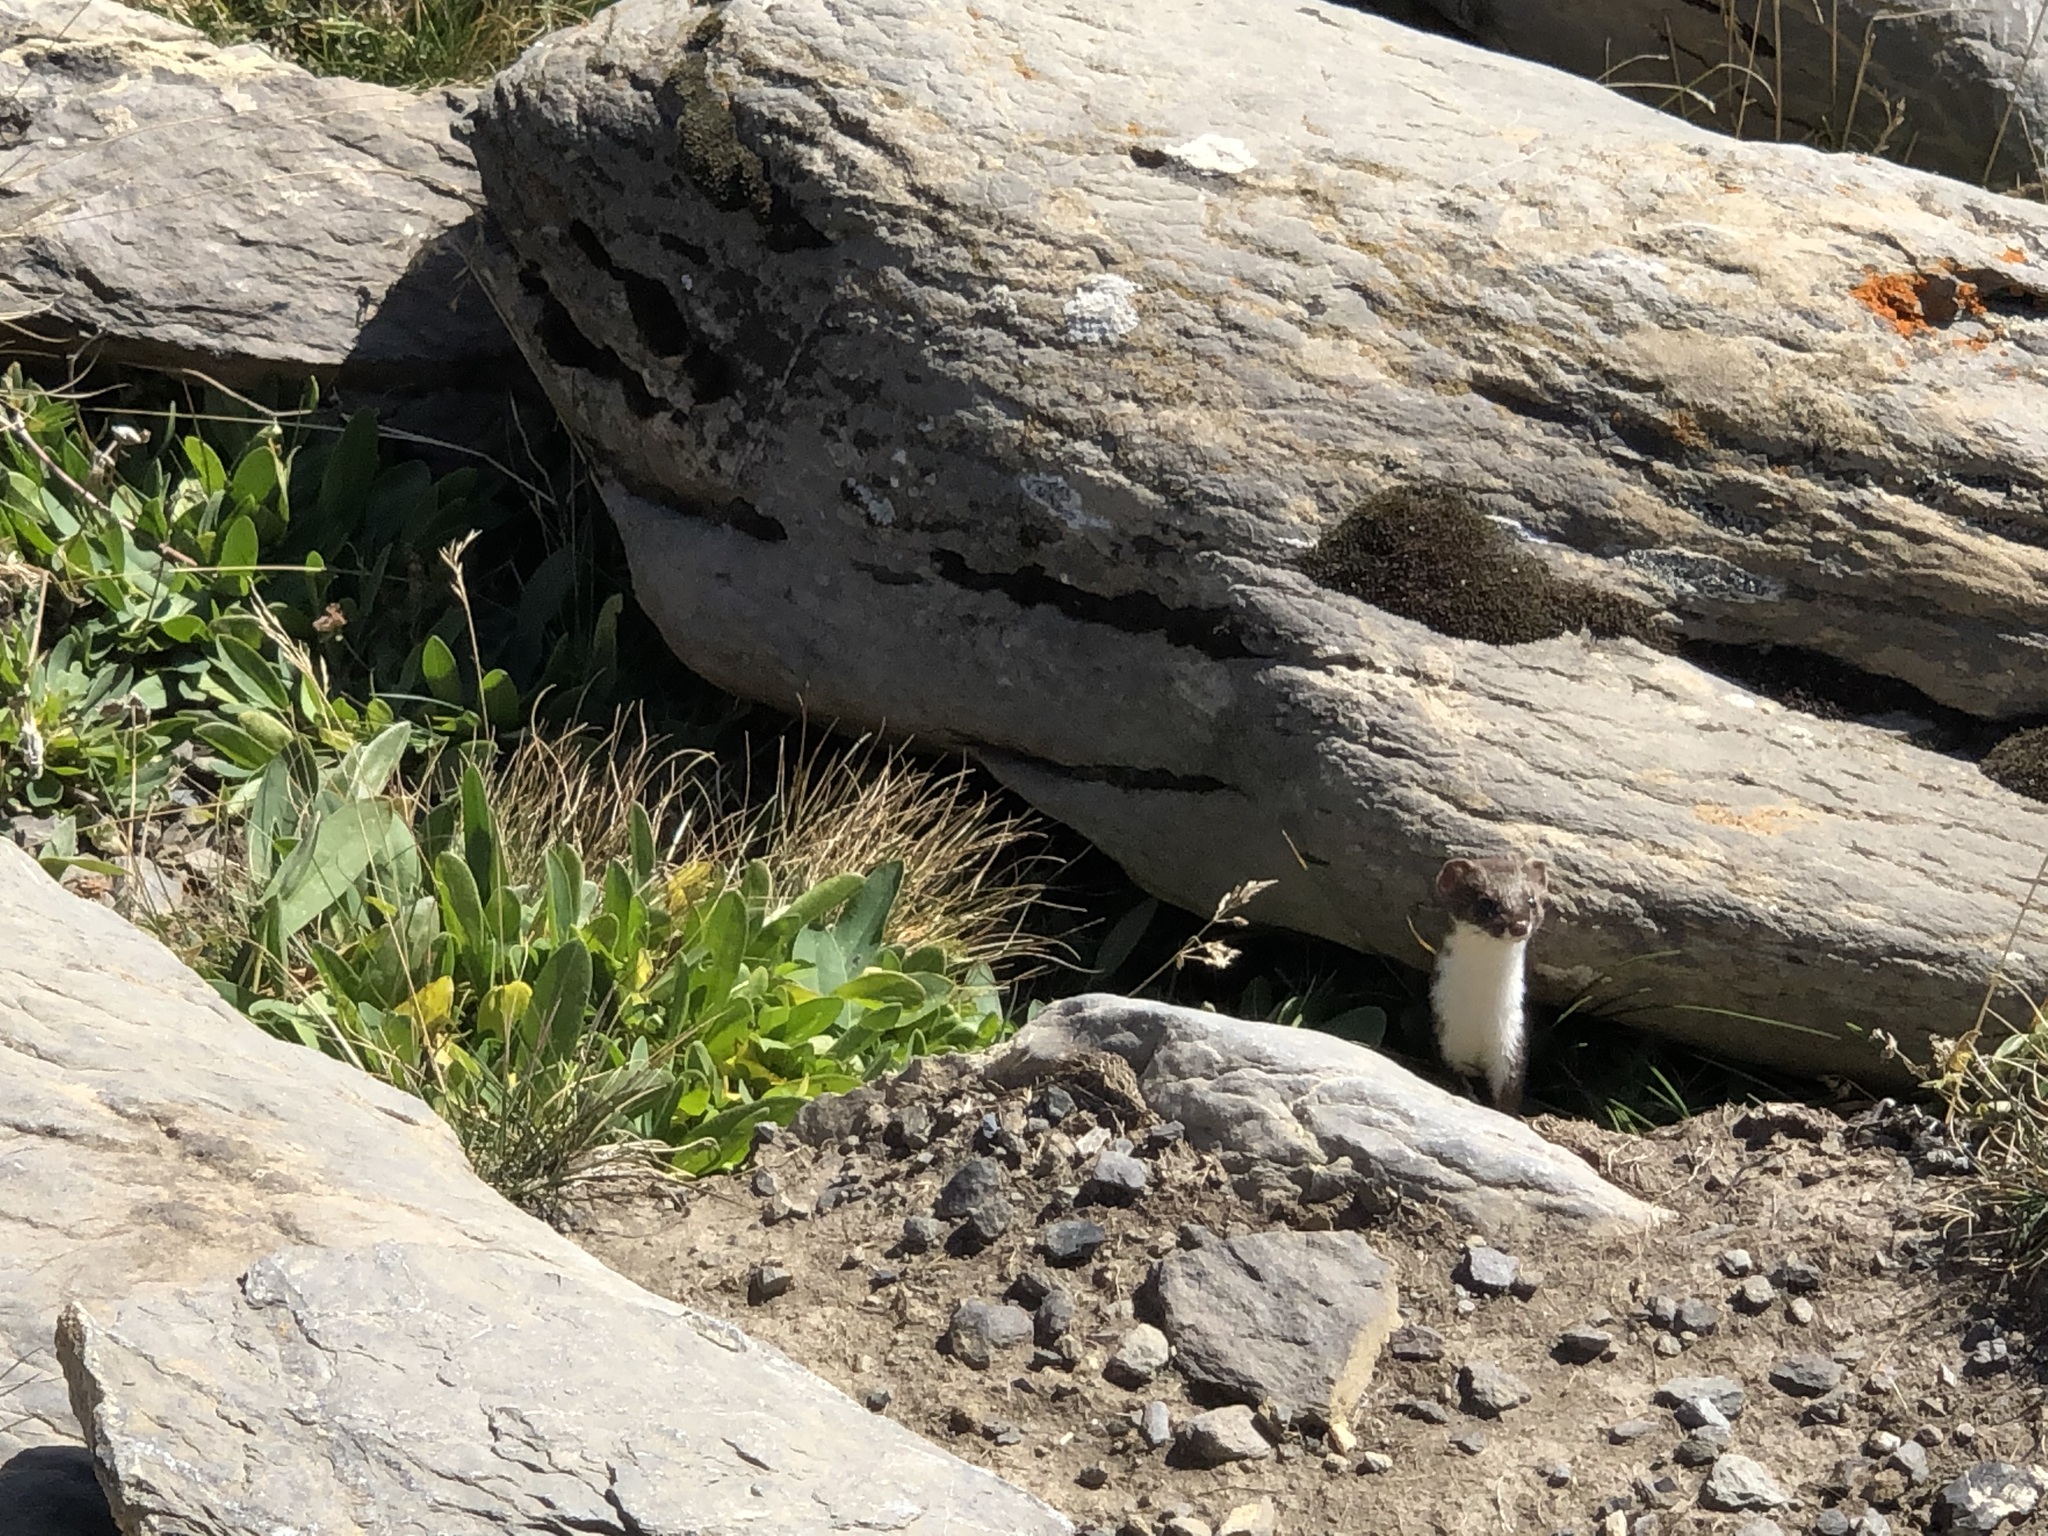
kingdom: Animalia
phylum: Chordata
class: Mammalia
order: Carnivora
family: Mustelidae
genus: Mustela
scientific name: Mustela nivalis
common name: Least weasel
